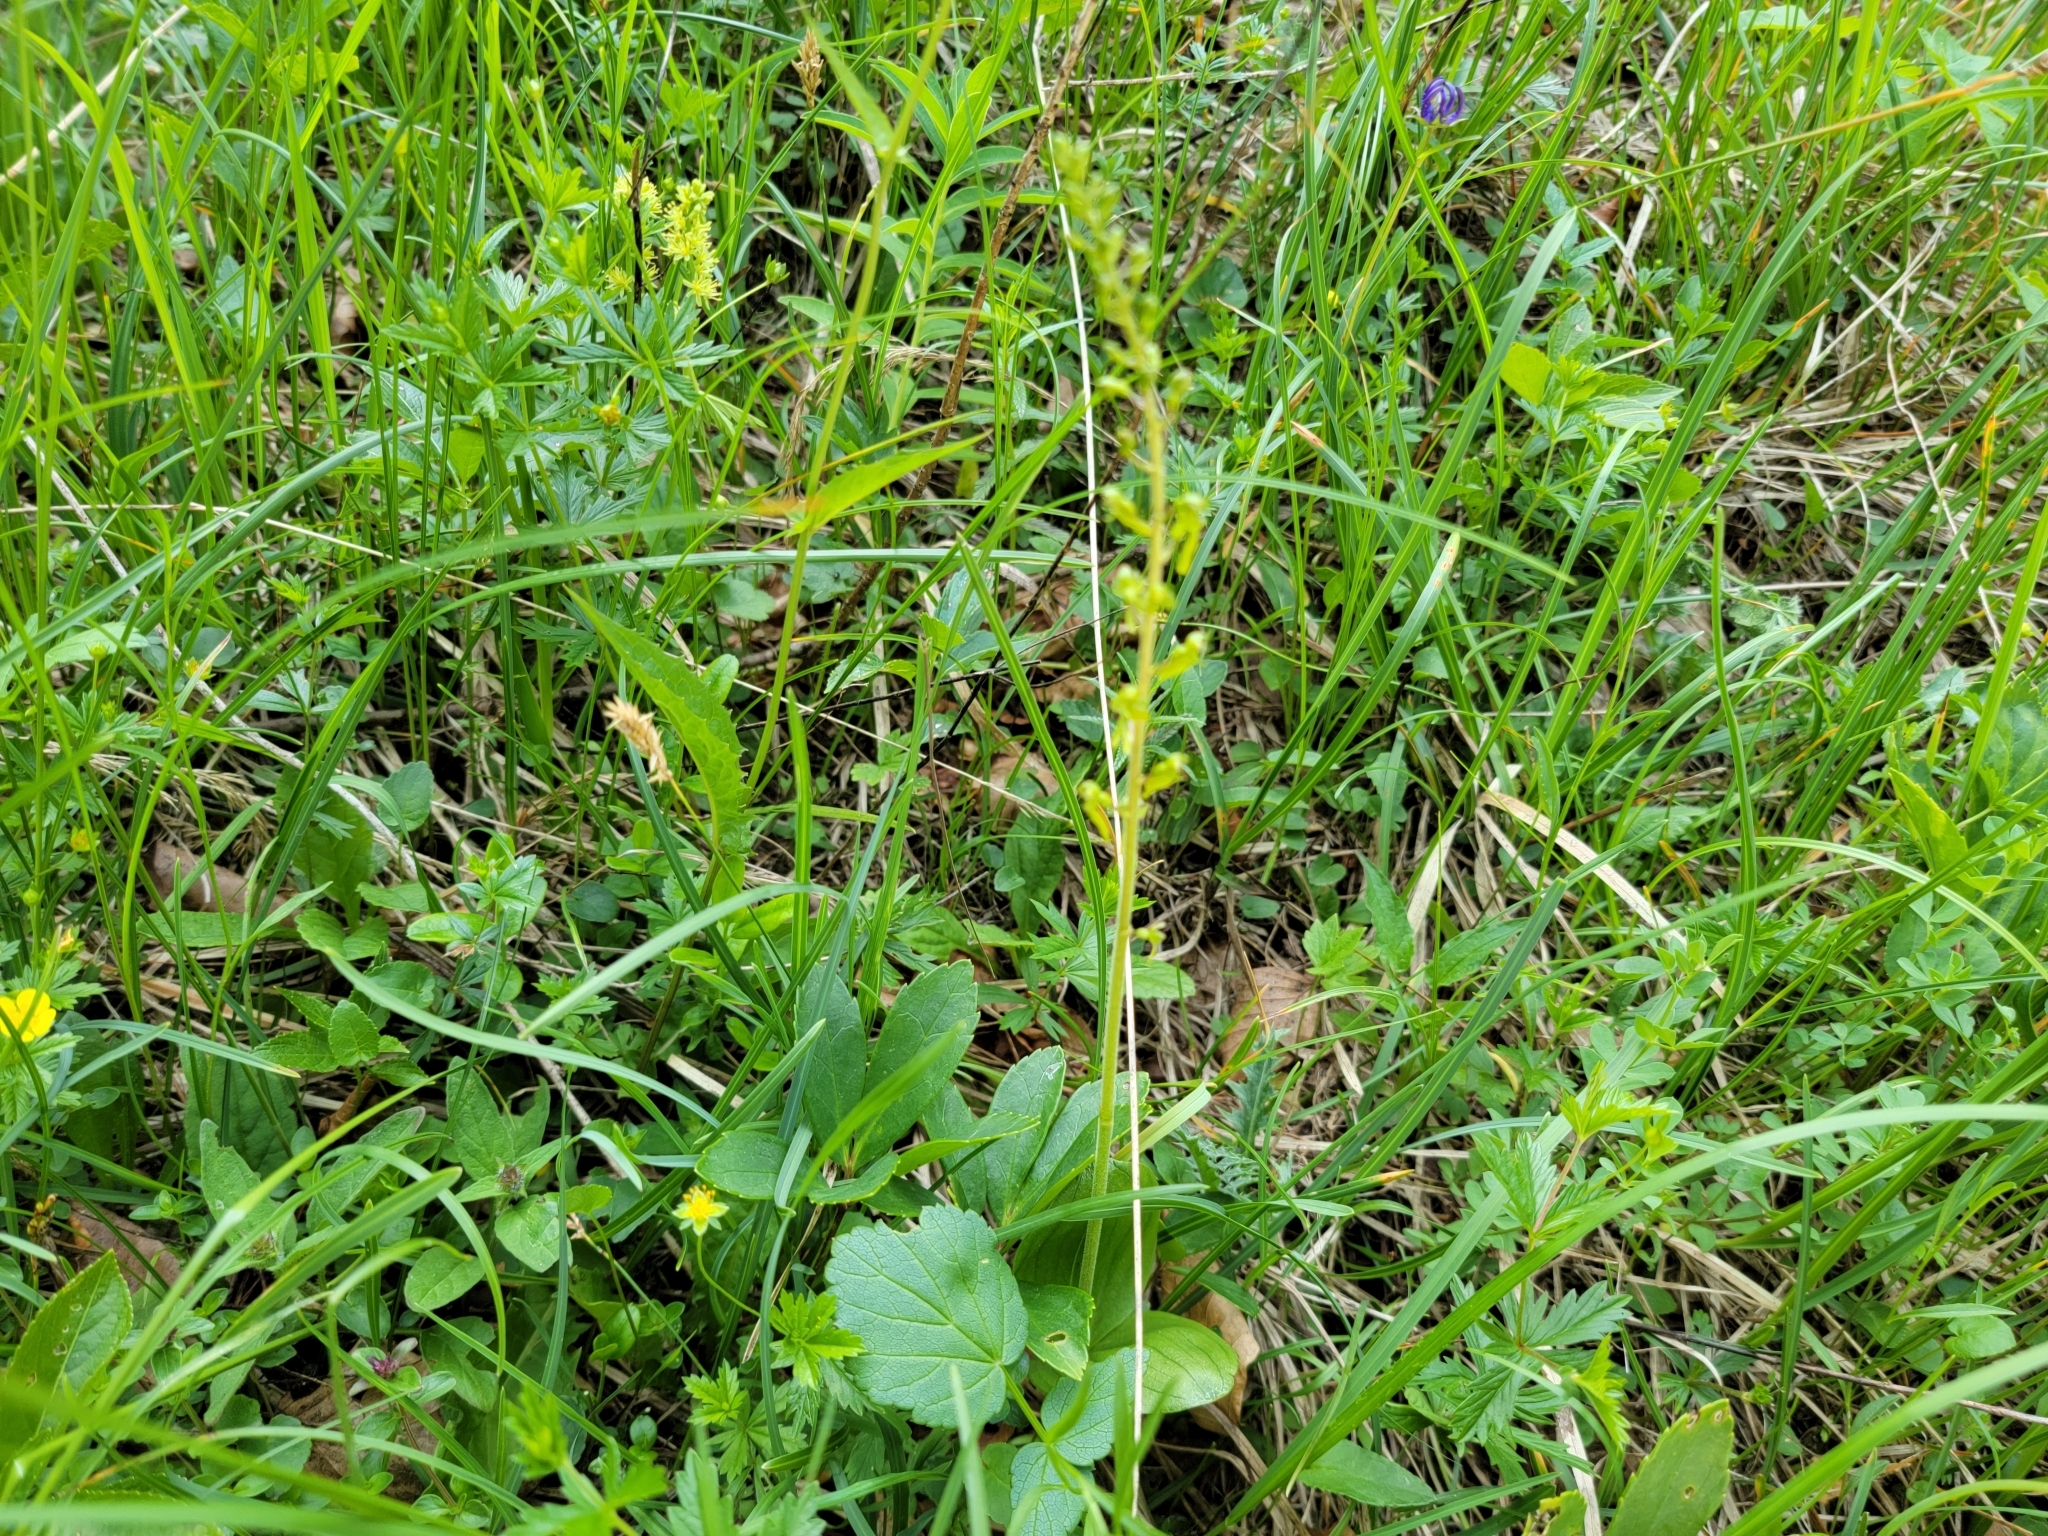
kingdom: Plantae
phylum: Tracheophyta
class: Liliopsida
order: Asparagales
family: Orchidaceae
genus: Neottia
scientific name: Neottia ovata
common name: Common twayblade
